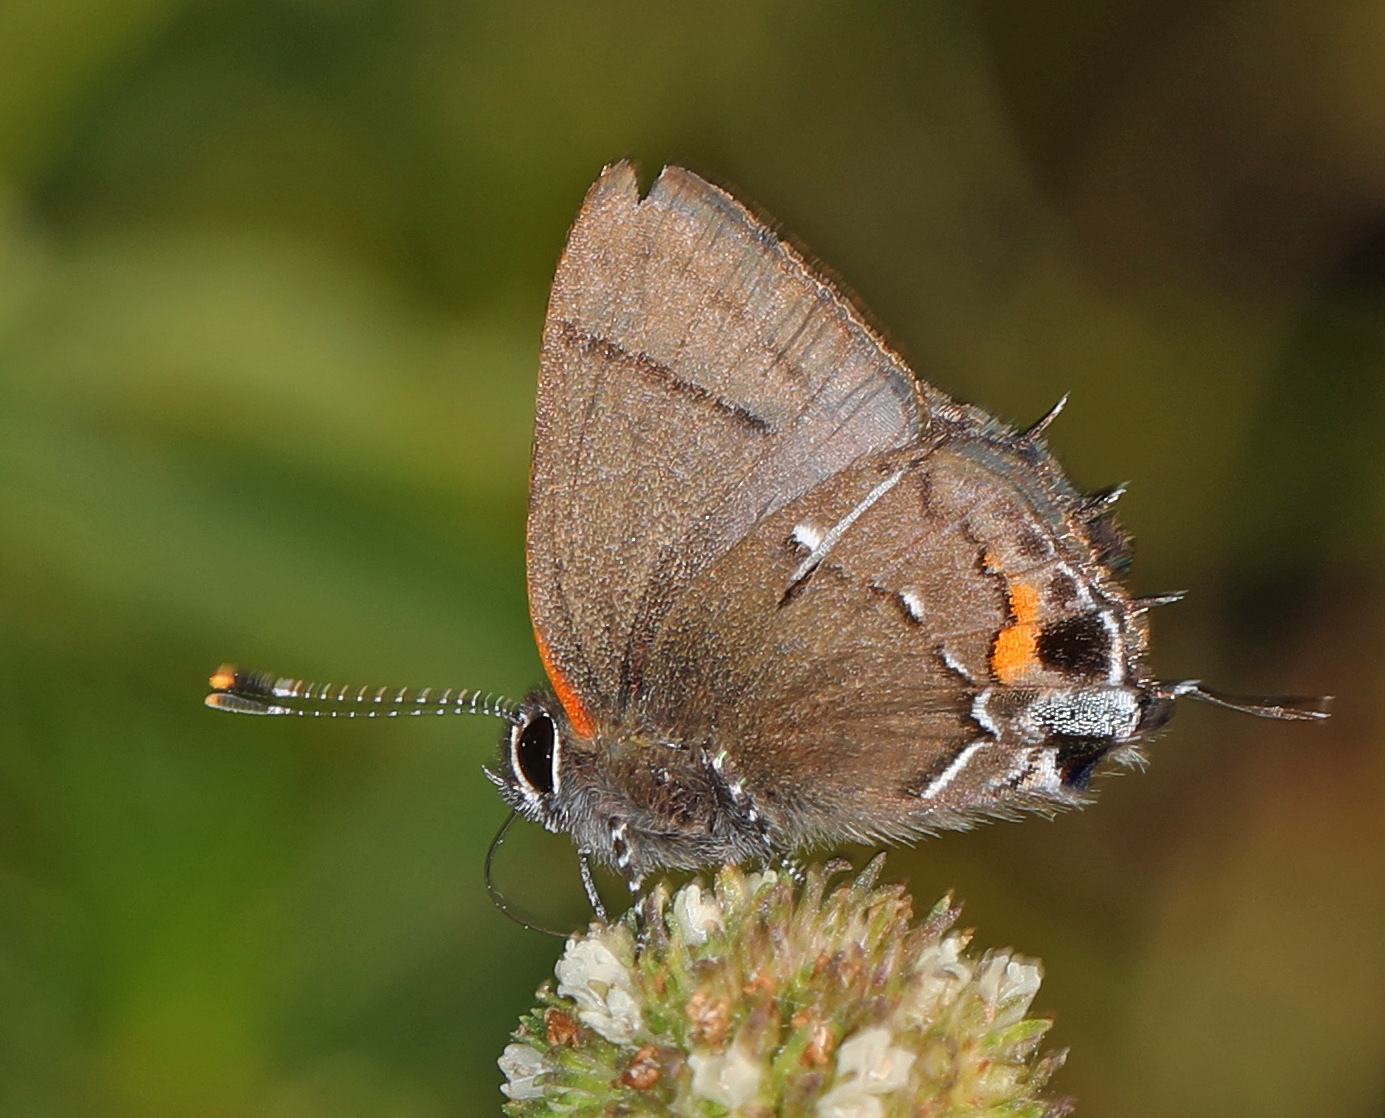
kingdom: Animalia
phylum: Arthropoda
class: Insecta
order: Lepidoptera
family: Lycaenidae
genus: Thecla
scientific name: Thecla angelia
